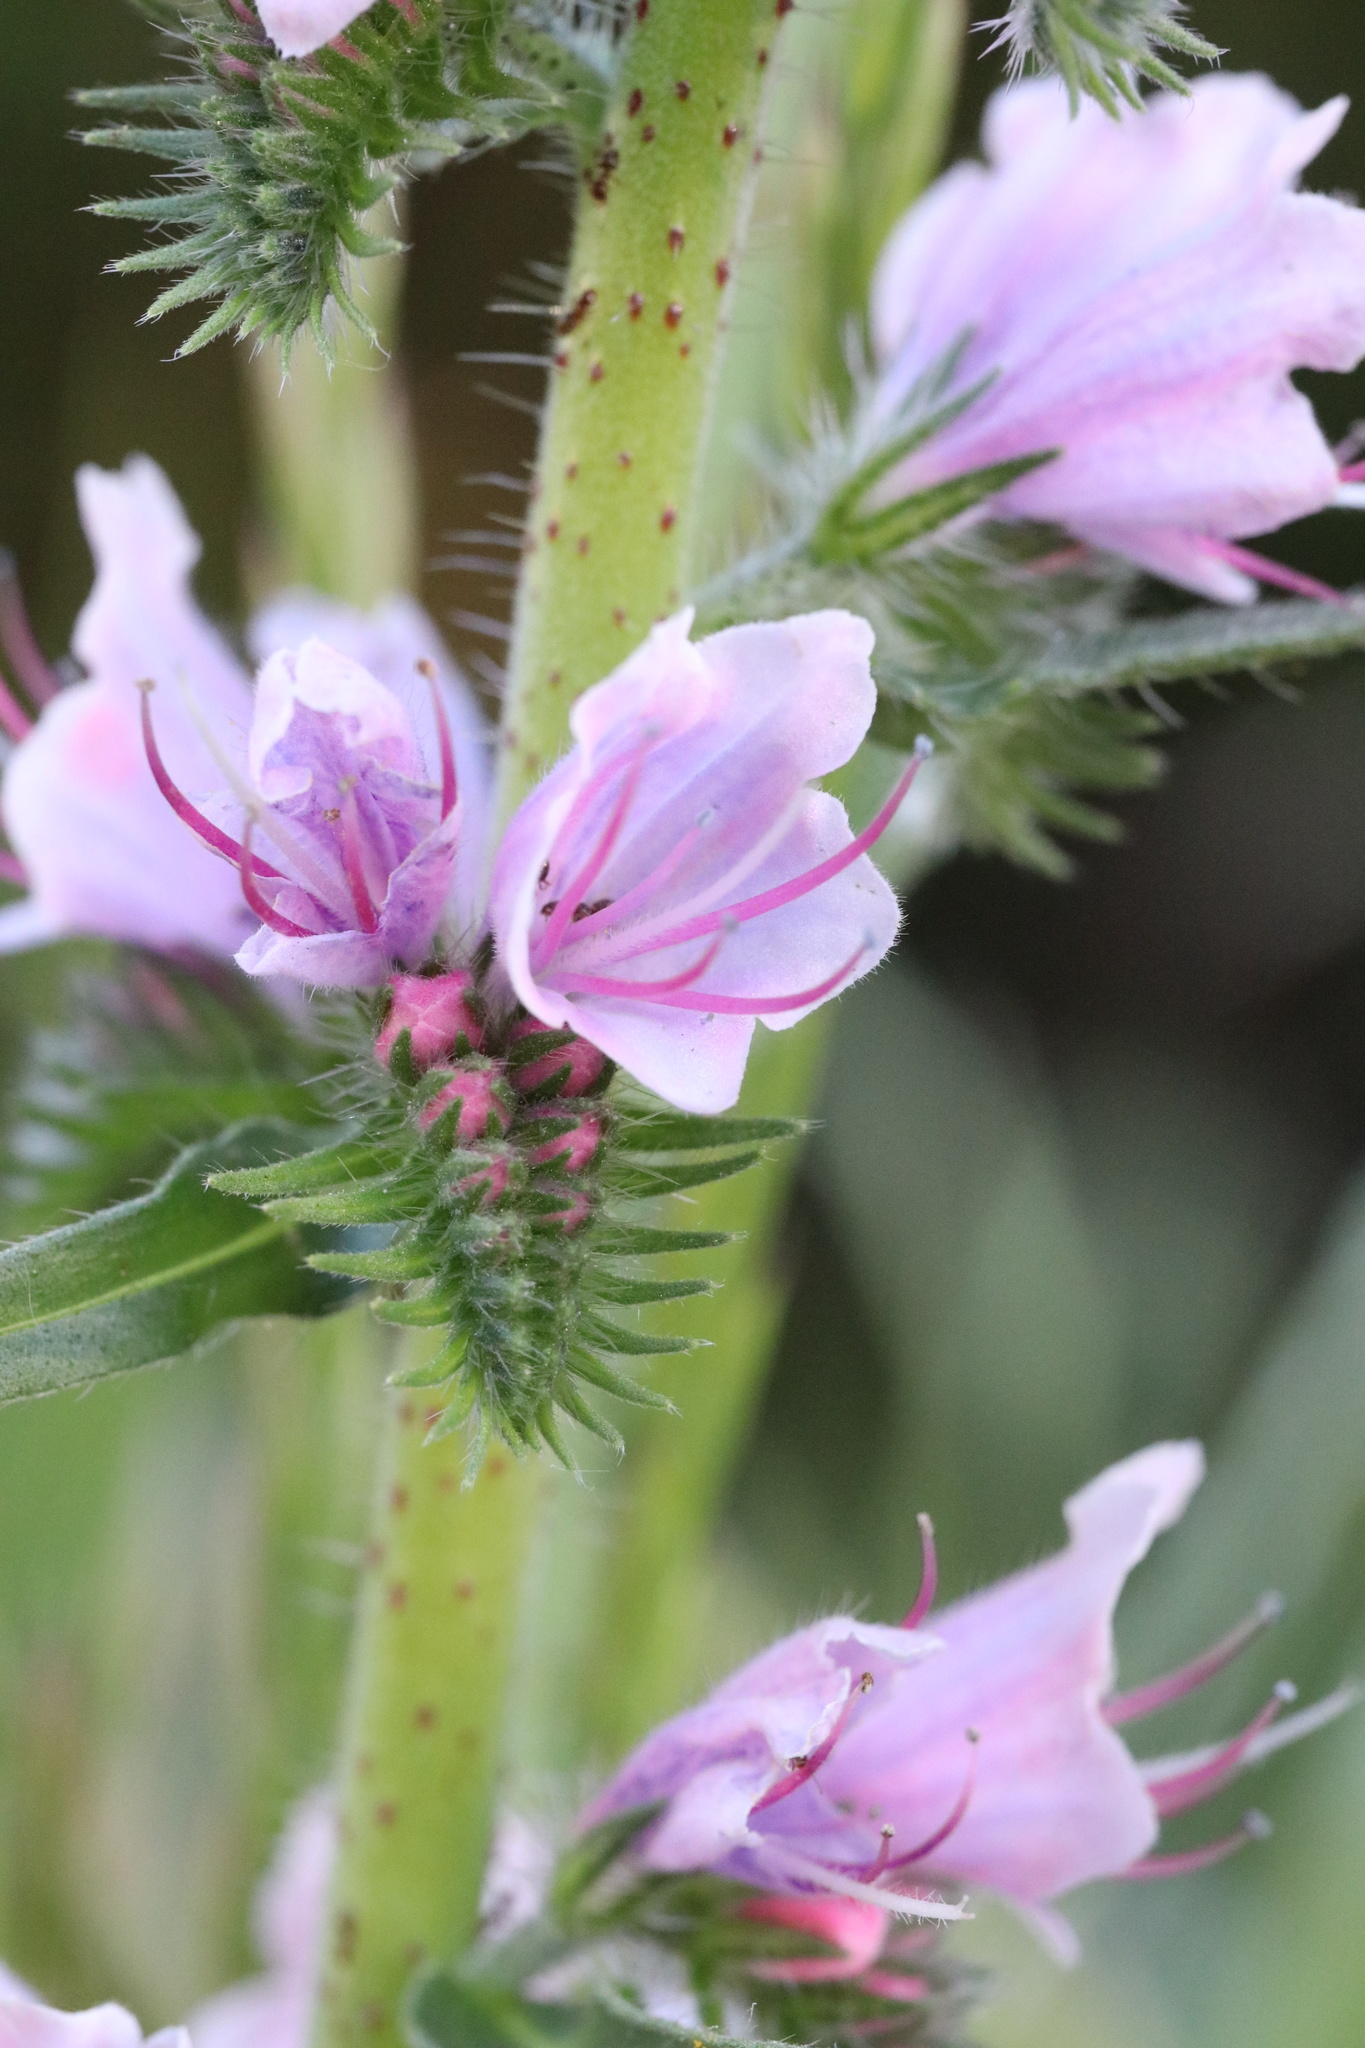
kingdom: Plantae
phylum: Tracheophyta
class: Magnoliopsida
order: Boraginales
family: Boraginaceae
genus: Echium
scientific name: Echium vulgare
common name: Common viper's bugloss
